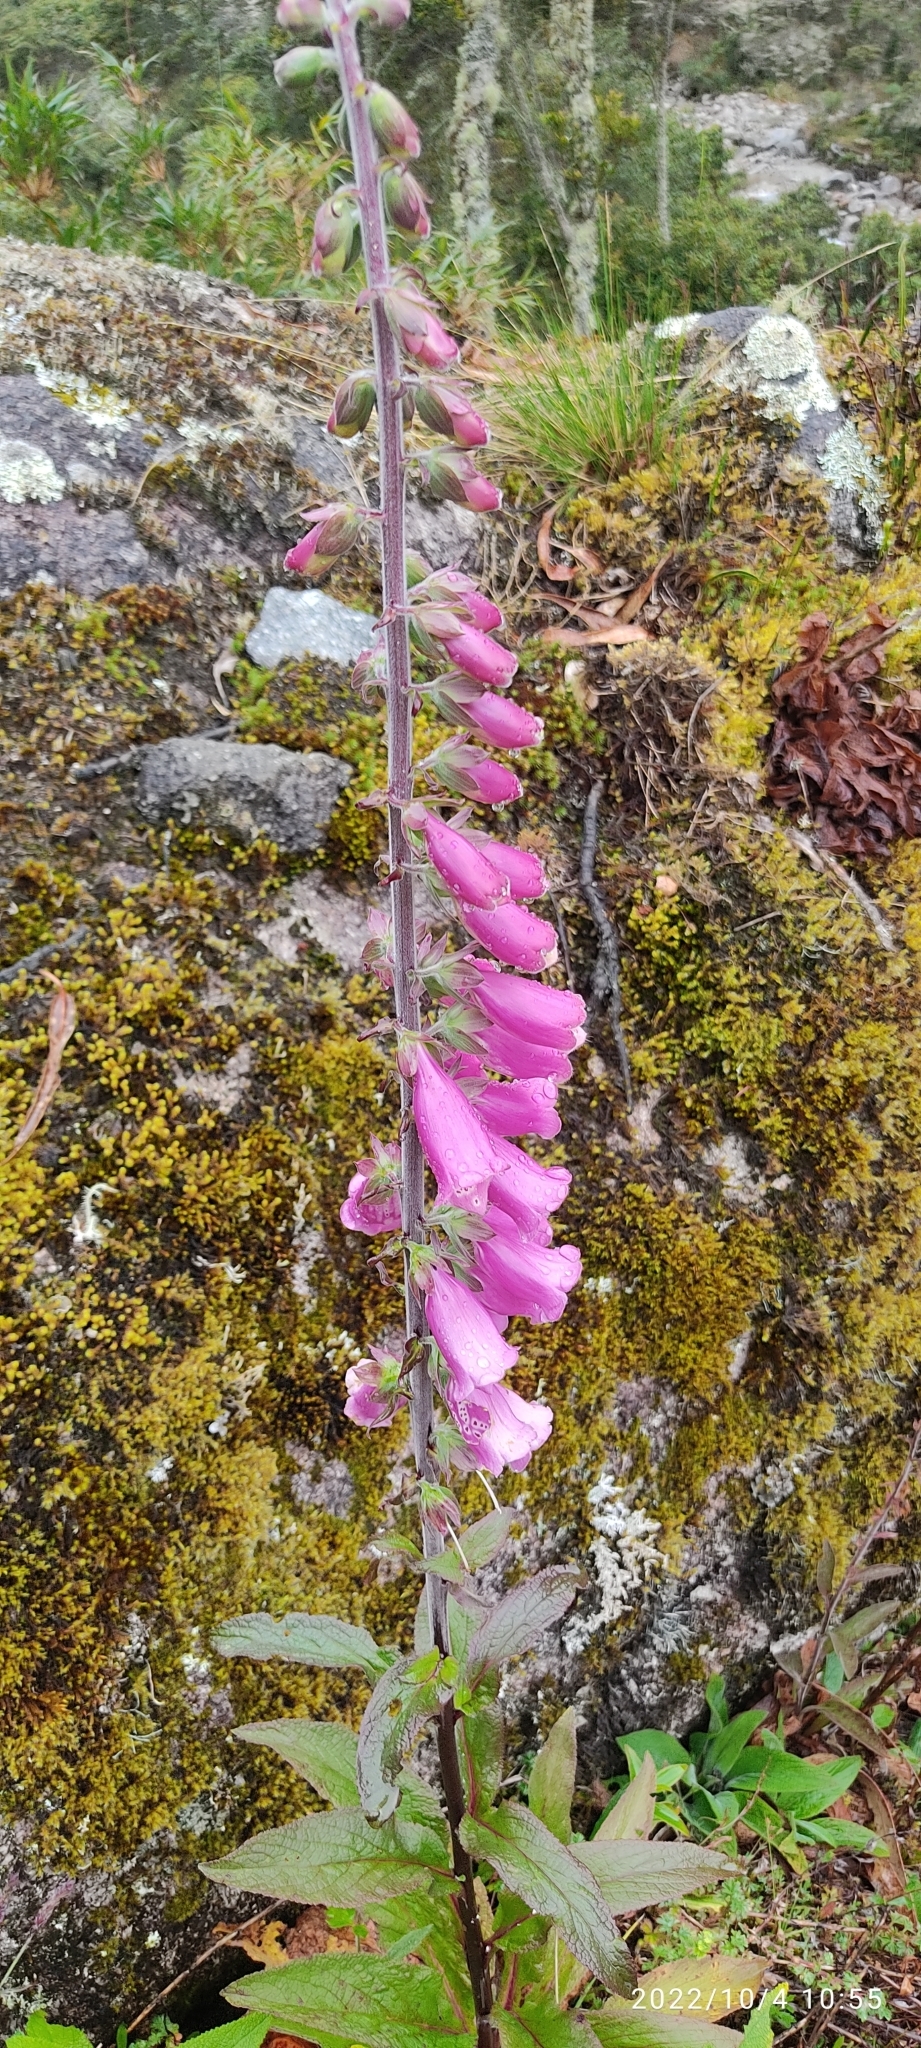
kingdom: Plantae
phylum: Tracheophyta
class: Magnoliopsida
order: Lamiales
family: Plantaginaceae
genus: Digitalis
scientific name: Digitalis purpurea
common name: Foxglove
